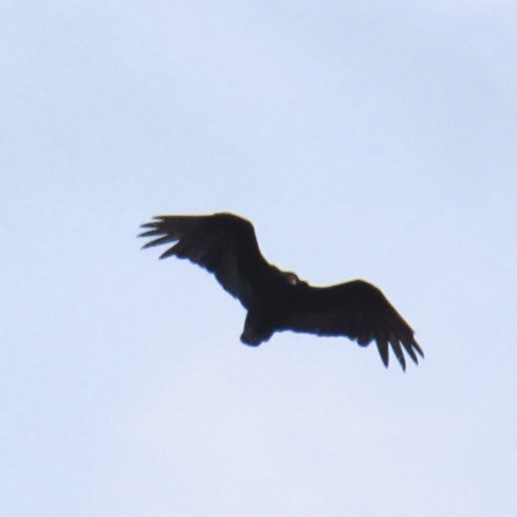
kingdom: Animalia
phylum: Chordata
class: Aves
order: Accipitriformes
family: Cathartidae
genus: Cathartes
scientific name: Cathartes aura
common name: Turkey vulture
